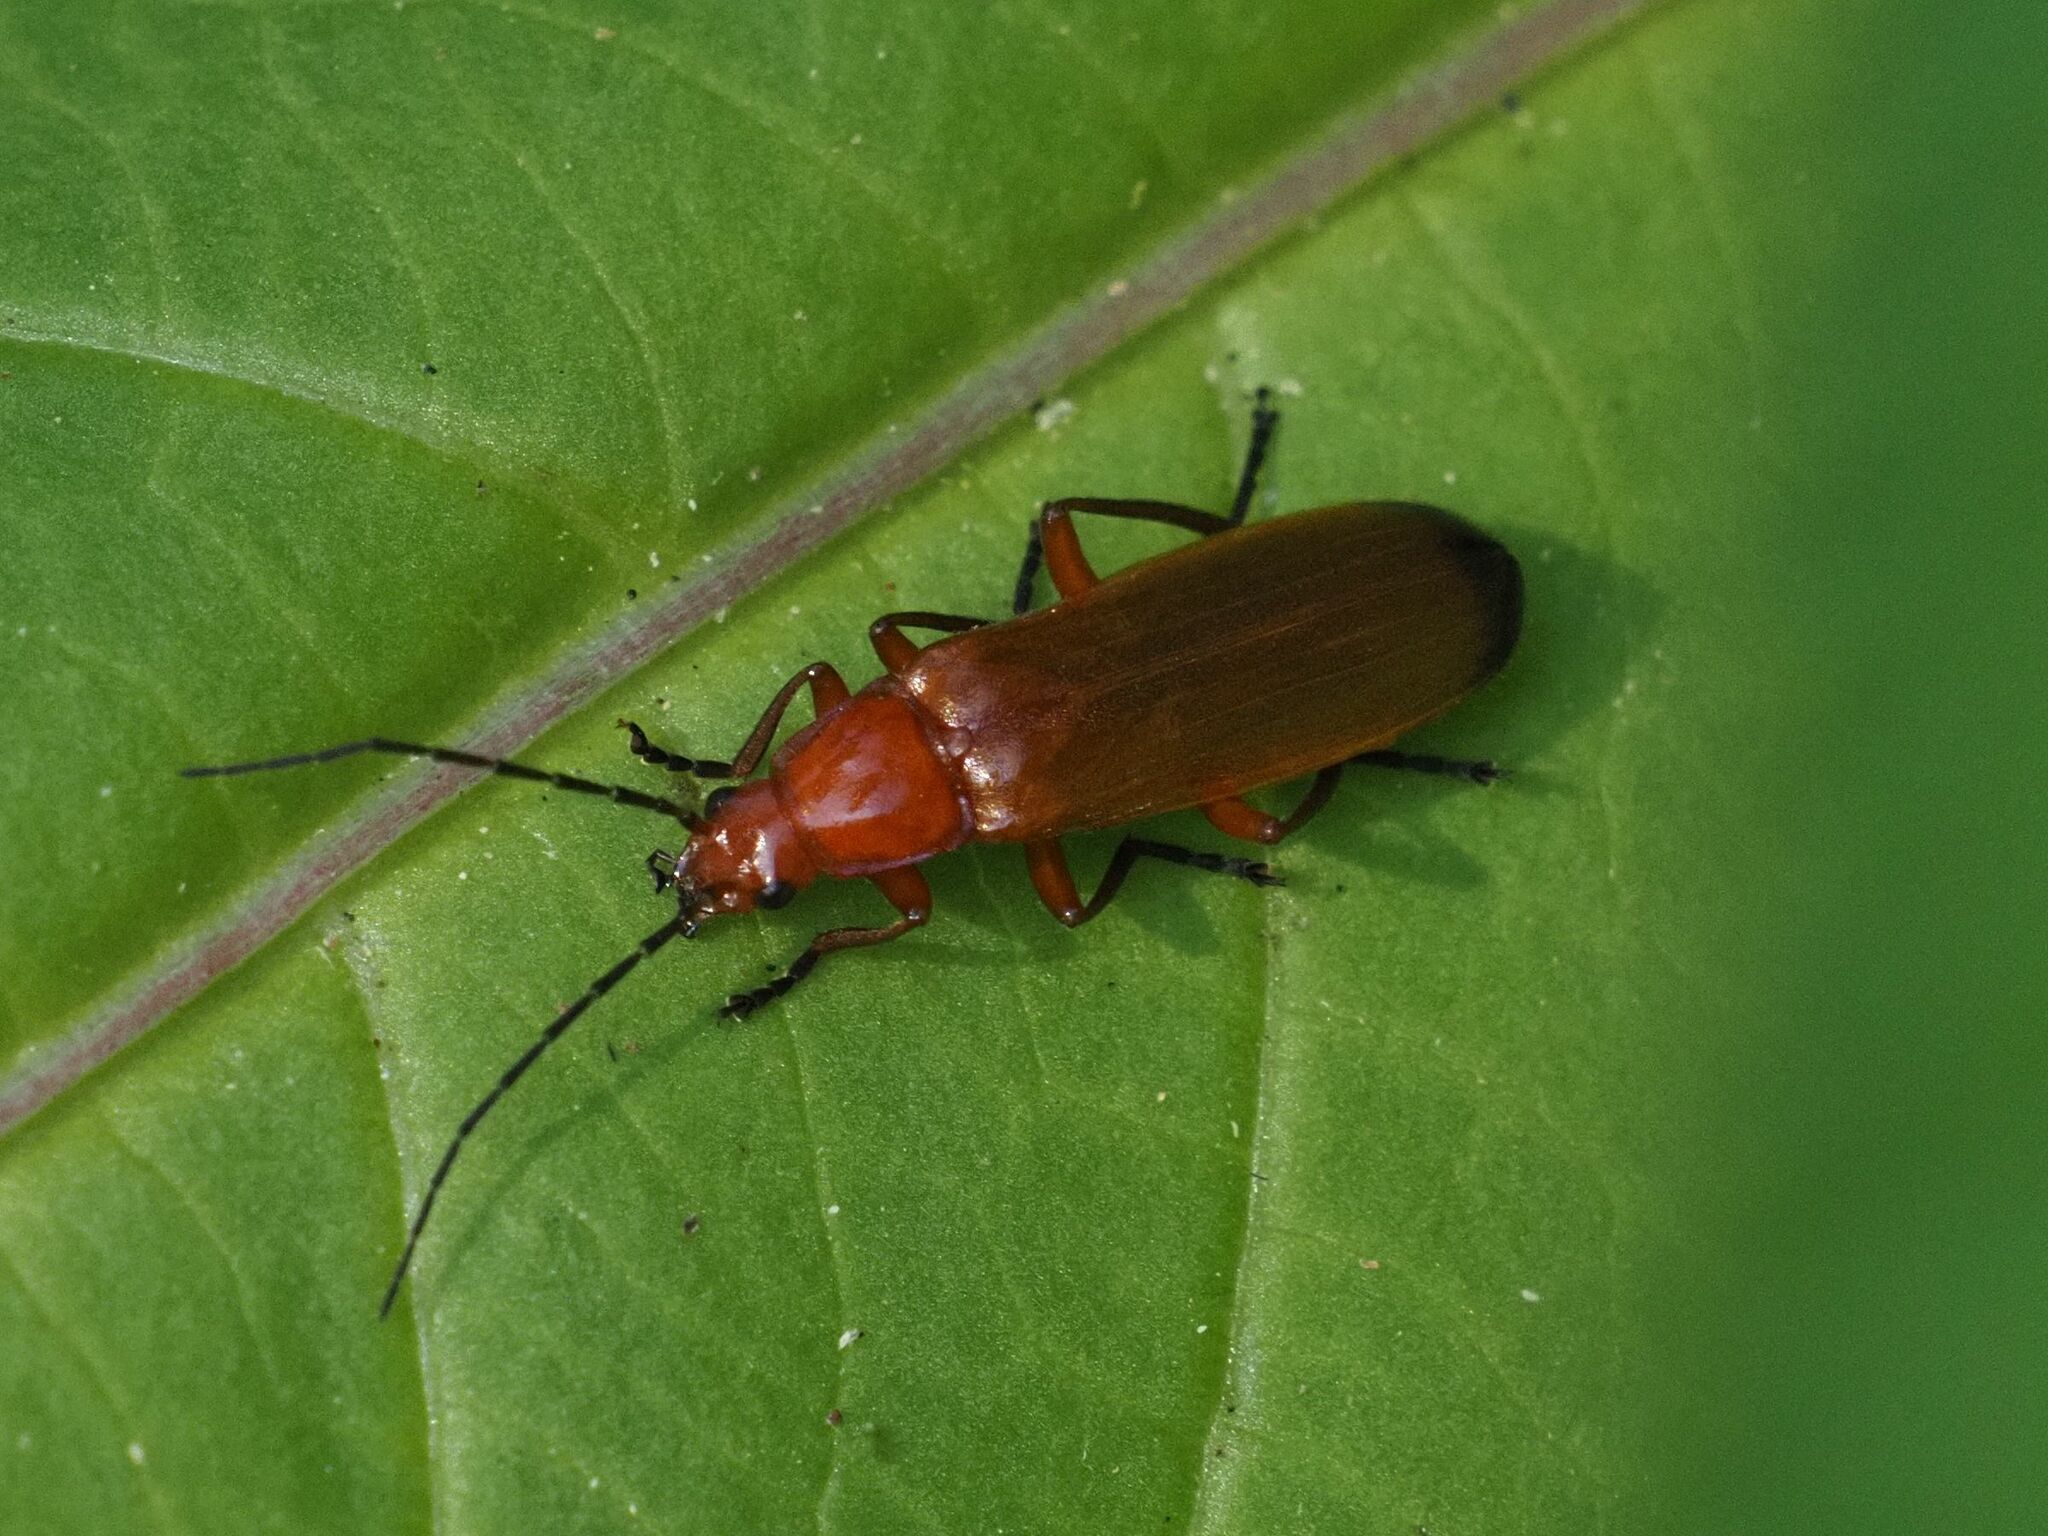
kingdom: Animalia
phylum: Arthropoda
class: Insecta
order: Coleoptera
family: Cantharidae
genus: Rhagonycha
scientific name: Rhagonycha fulva
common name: Common red soldier beetle
